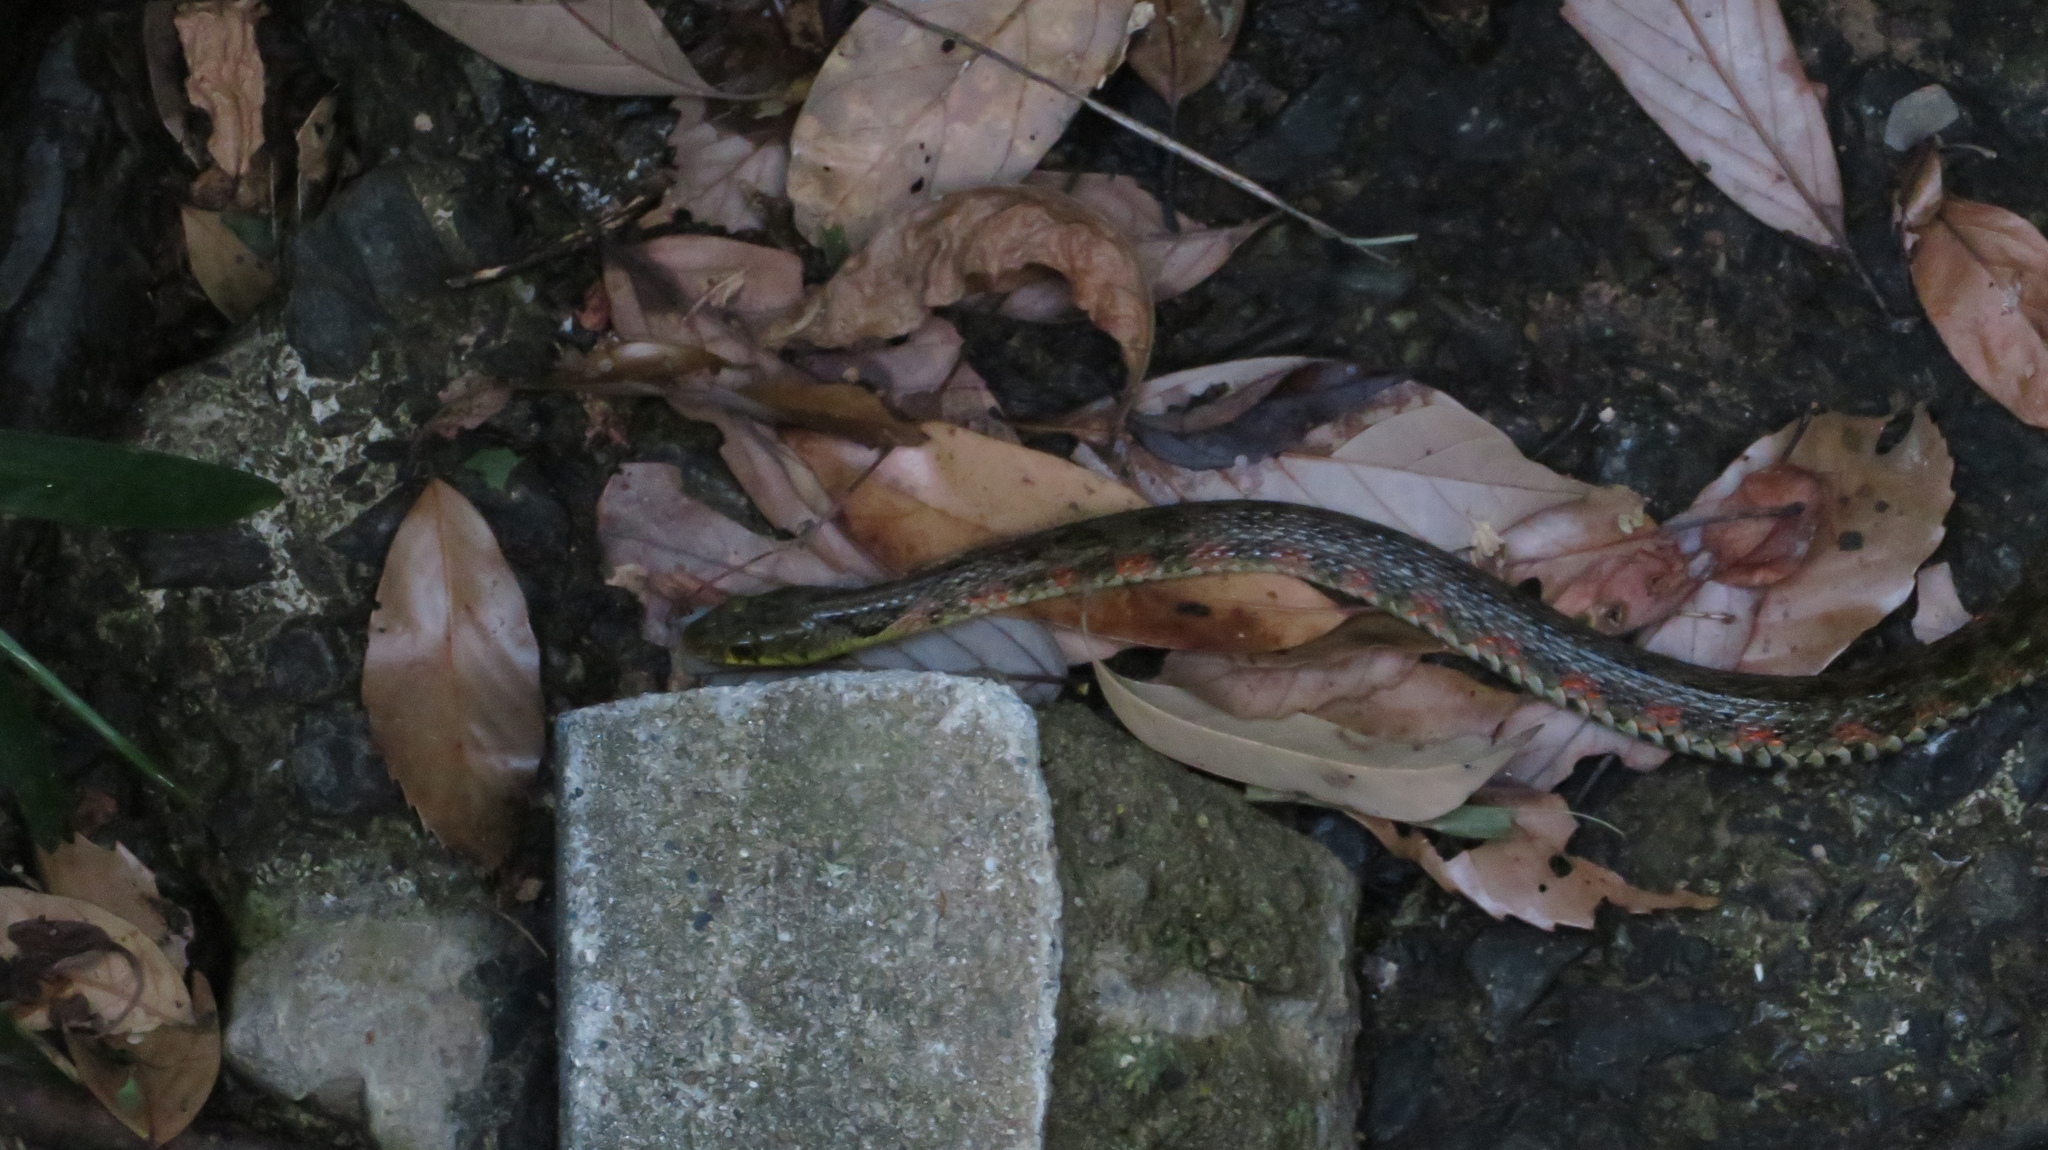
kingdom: Animalia
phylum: Chordata
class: Squamata
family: Colubridae
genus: Rhabdophis
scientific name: Rhabdophis tigrinus
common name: Tiger keelback
